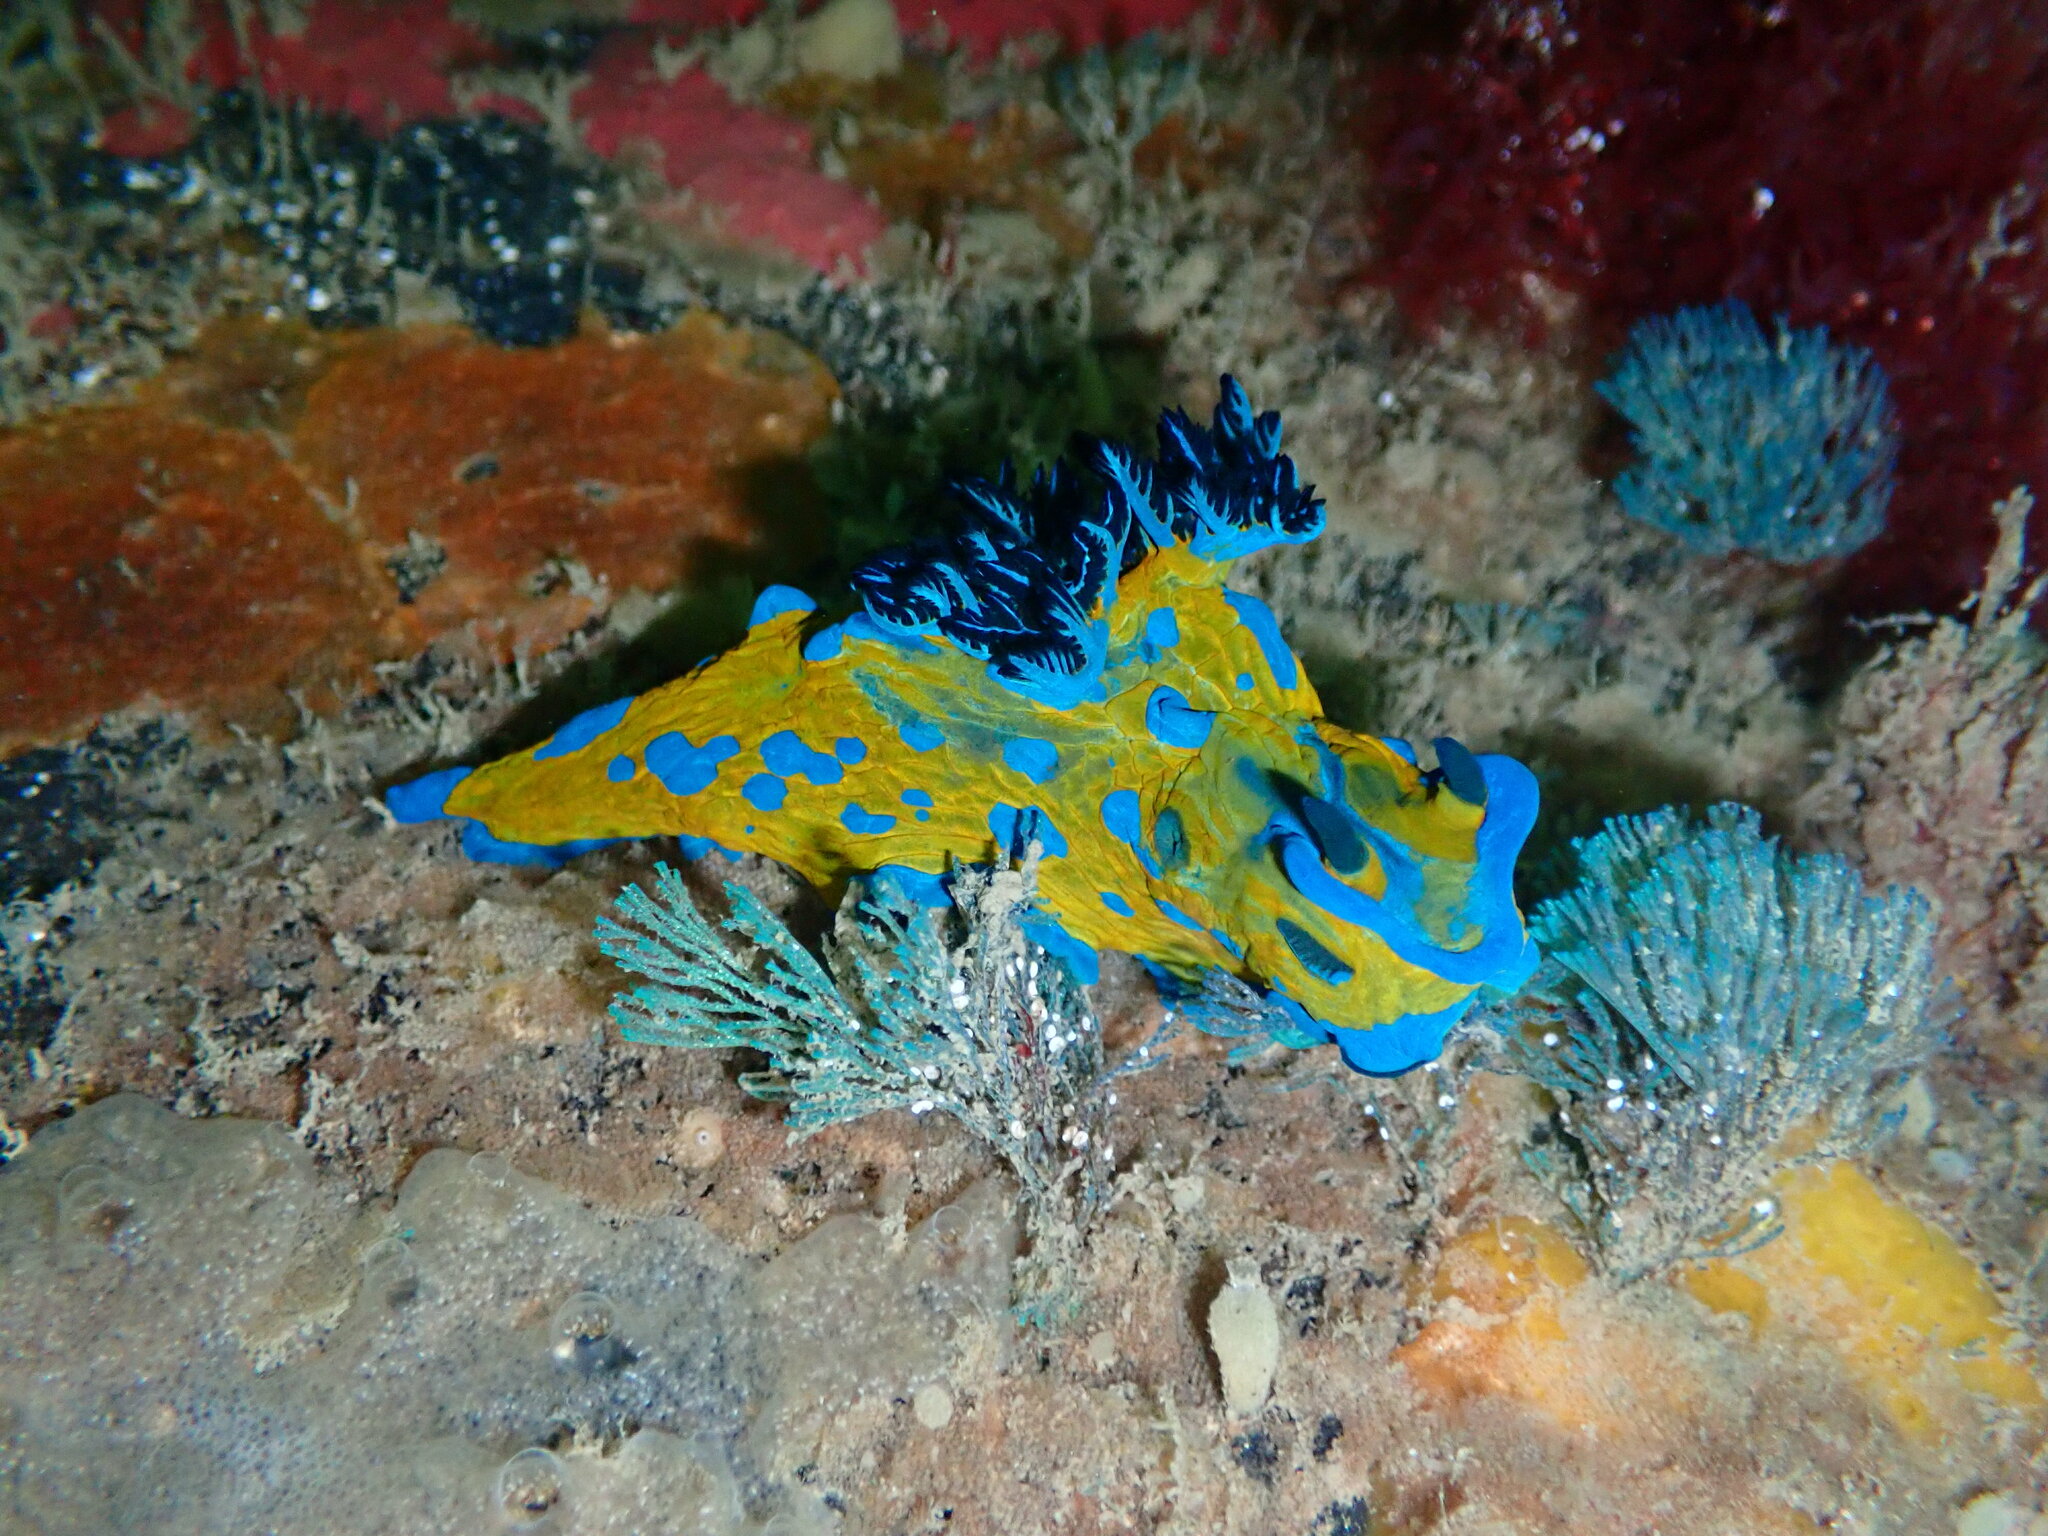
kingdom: Animalia
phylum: Mollusca
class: Gastropoda
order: Nudibranchia
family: Polyceridae
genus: Tambja
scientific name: Tambja verconis
